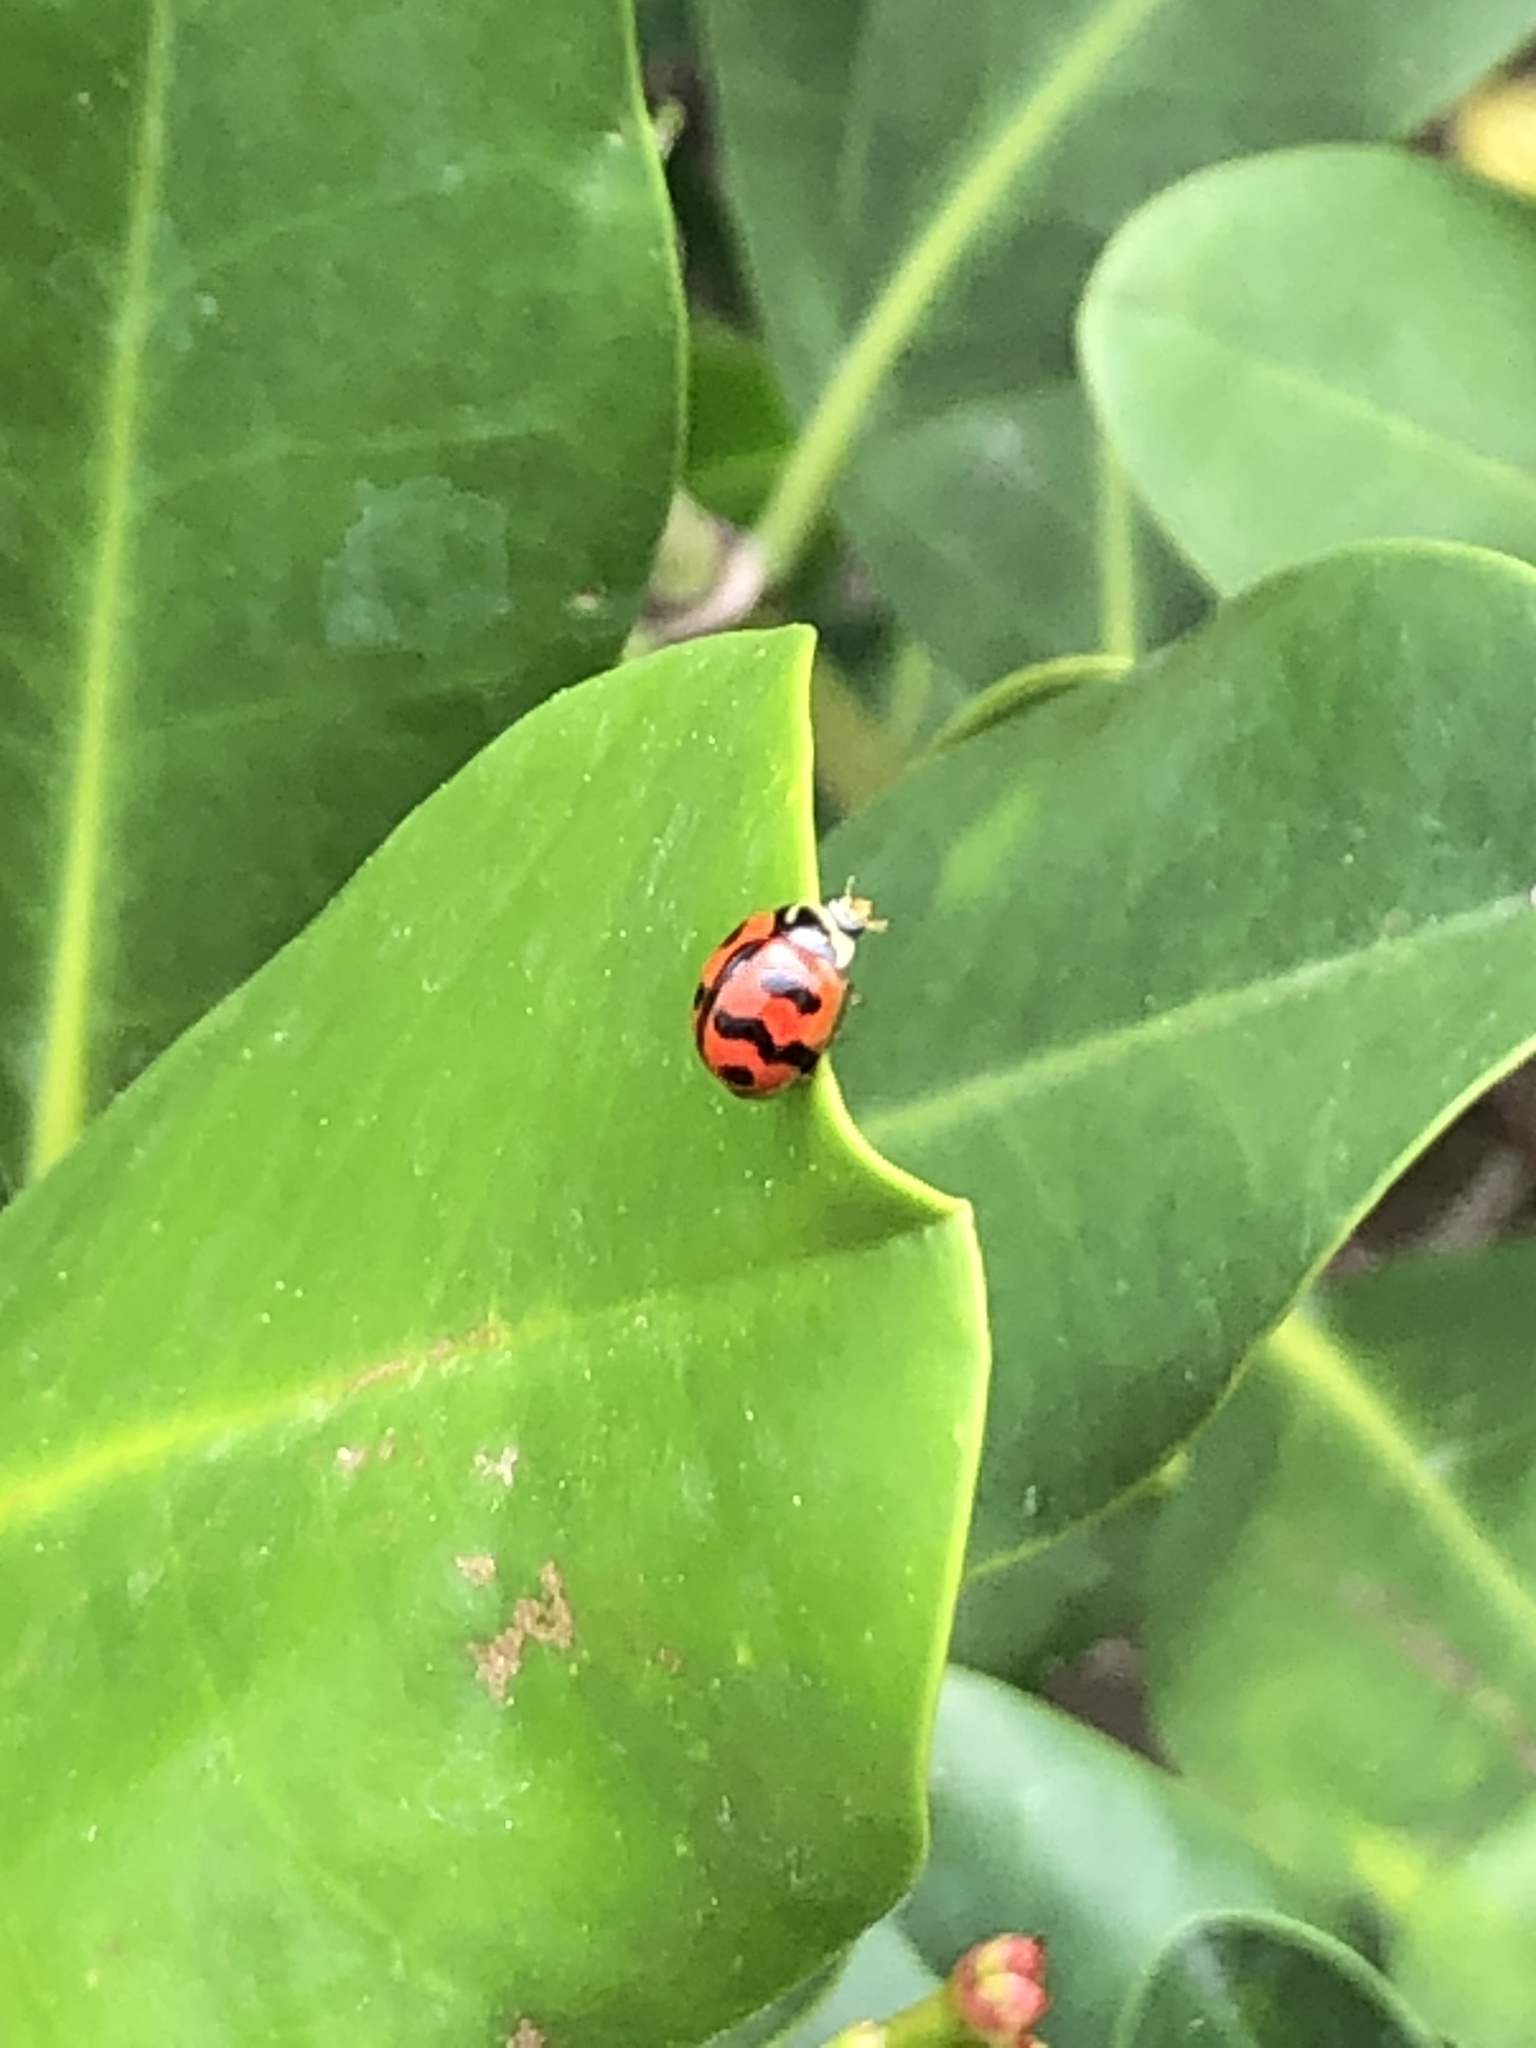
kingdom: Animalia
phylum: Arthropoda
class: Insecta
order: Coleoptera
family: Coccinellidae
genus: Cheilomenes
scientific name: Cheilomenes sexmaculata
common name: Ladybird beetle
